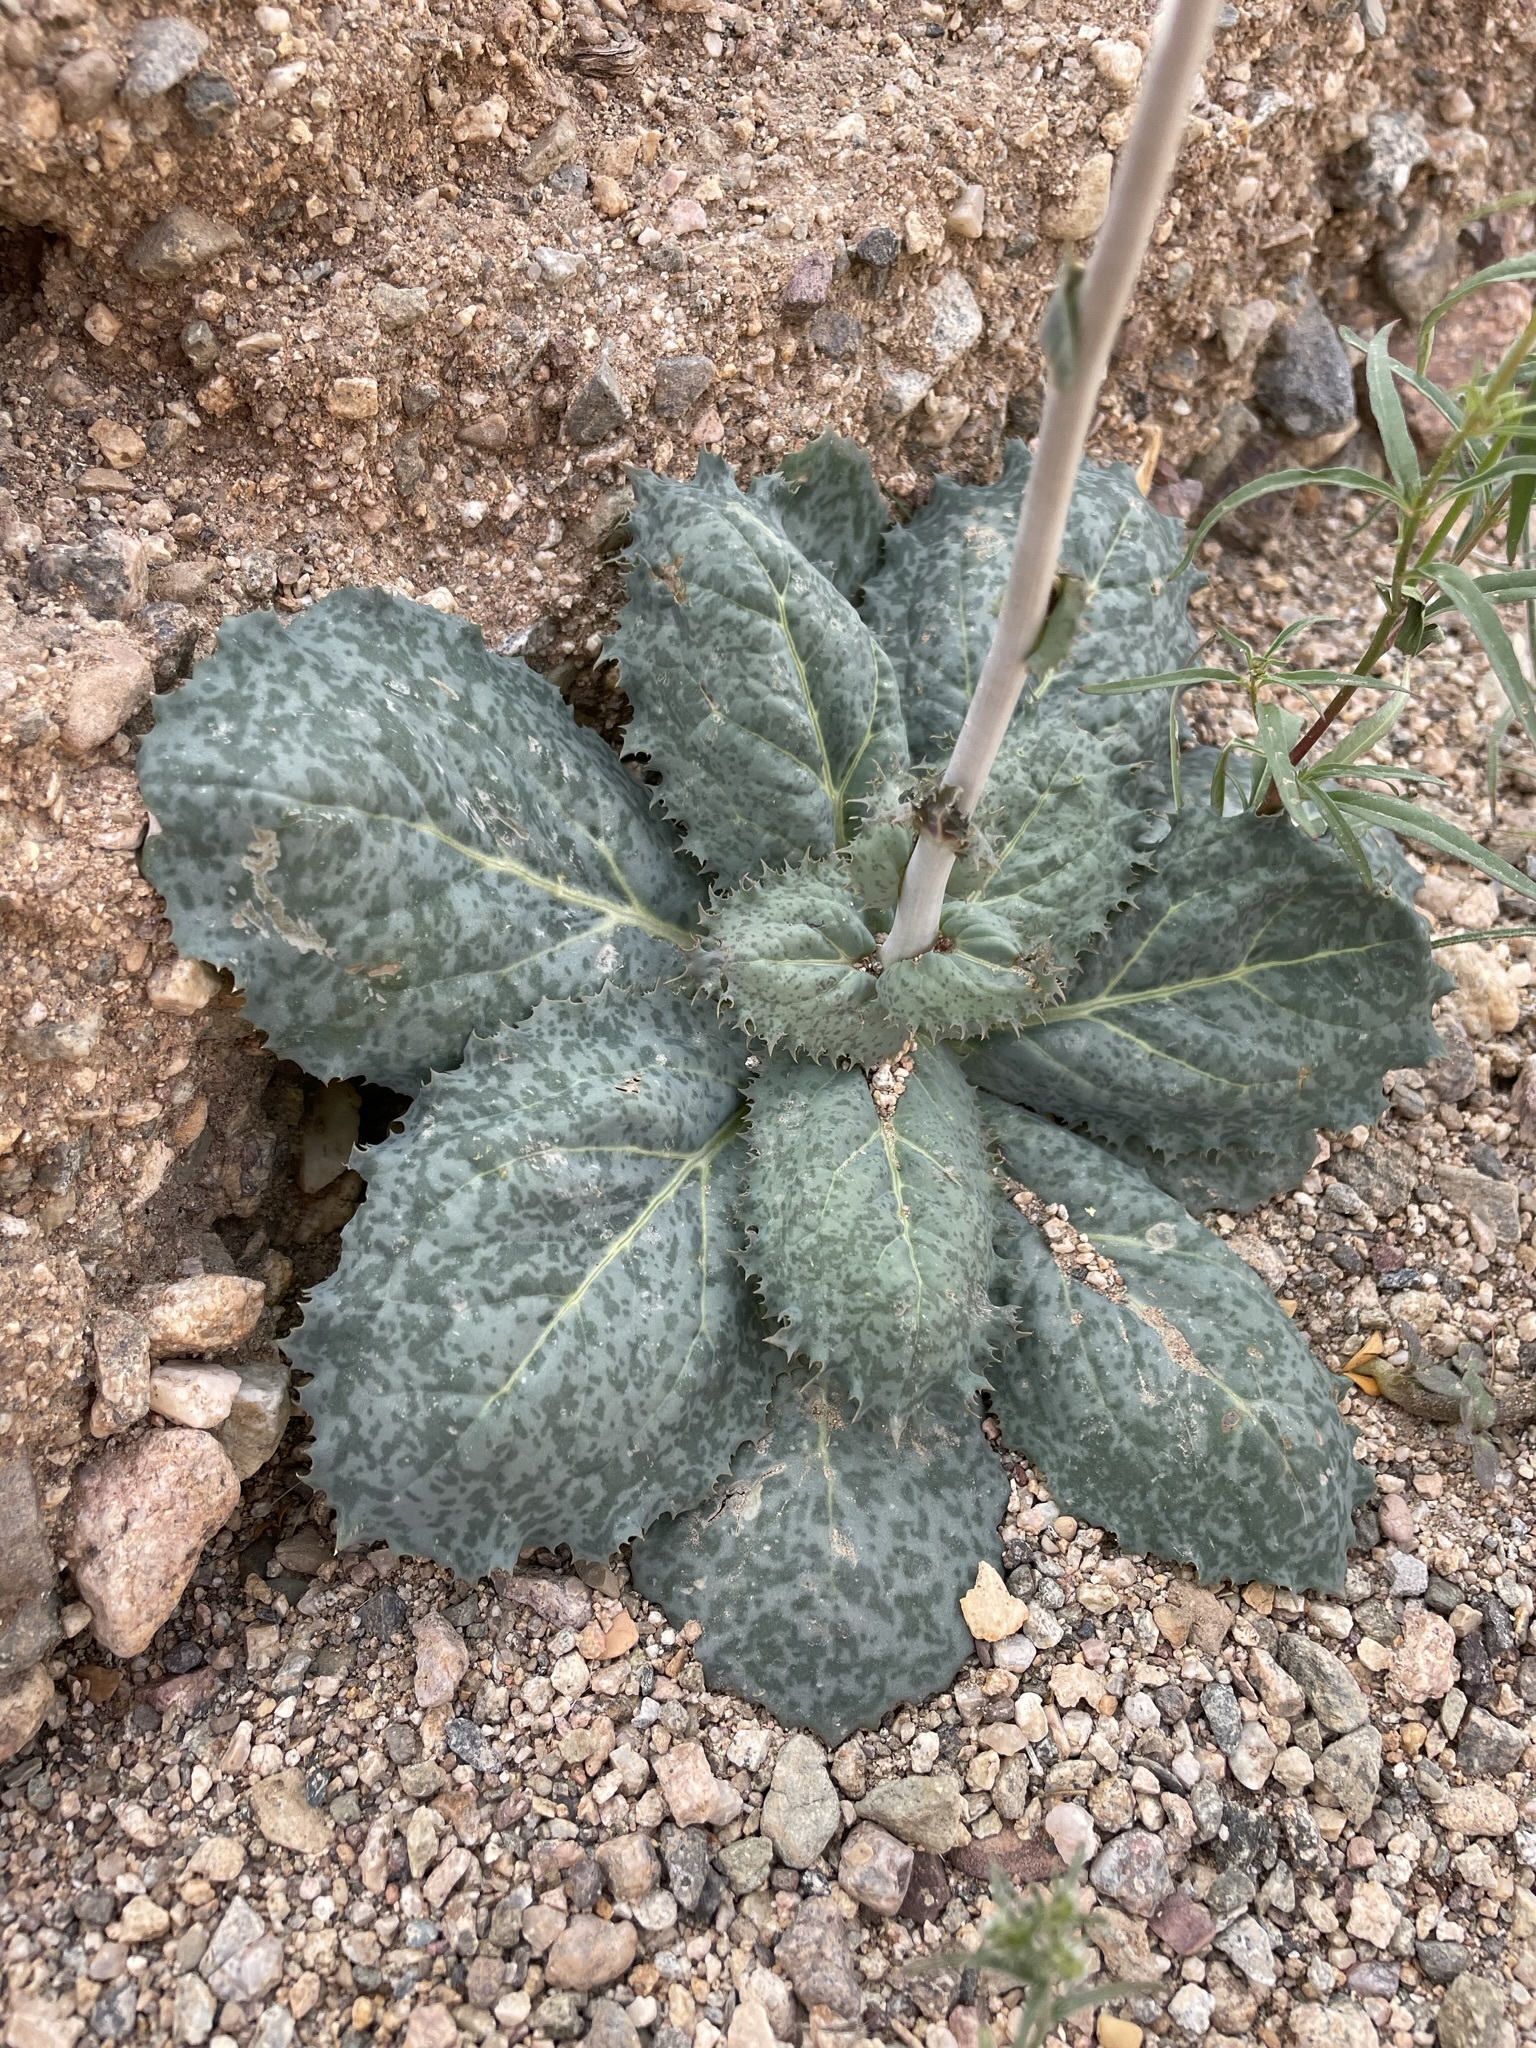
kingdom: Plantae
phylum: Tracheophyta
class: Magnoliopsida
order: Asterales
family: Asteraceae
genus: Atrichoseris
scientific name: Atrichoseris platyphylla
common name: Tobaccoweed
